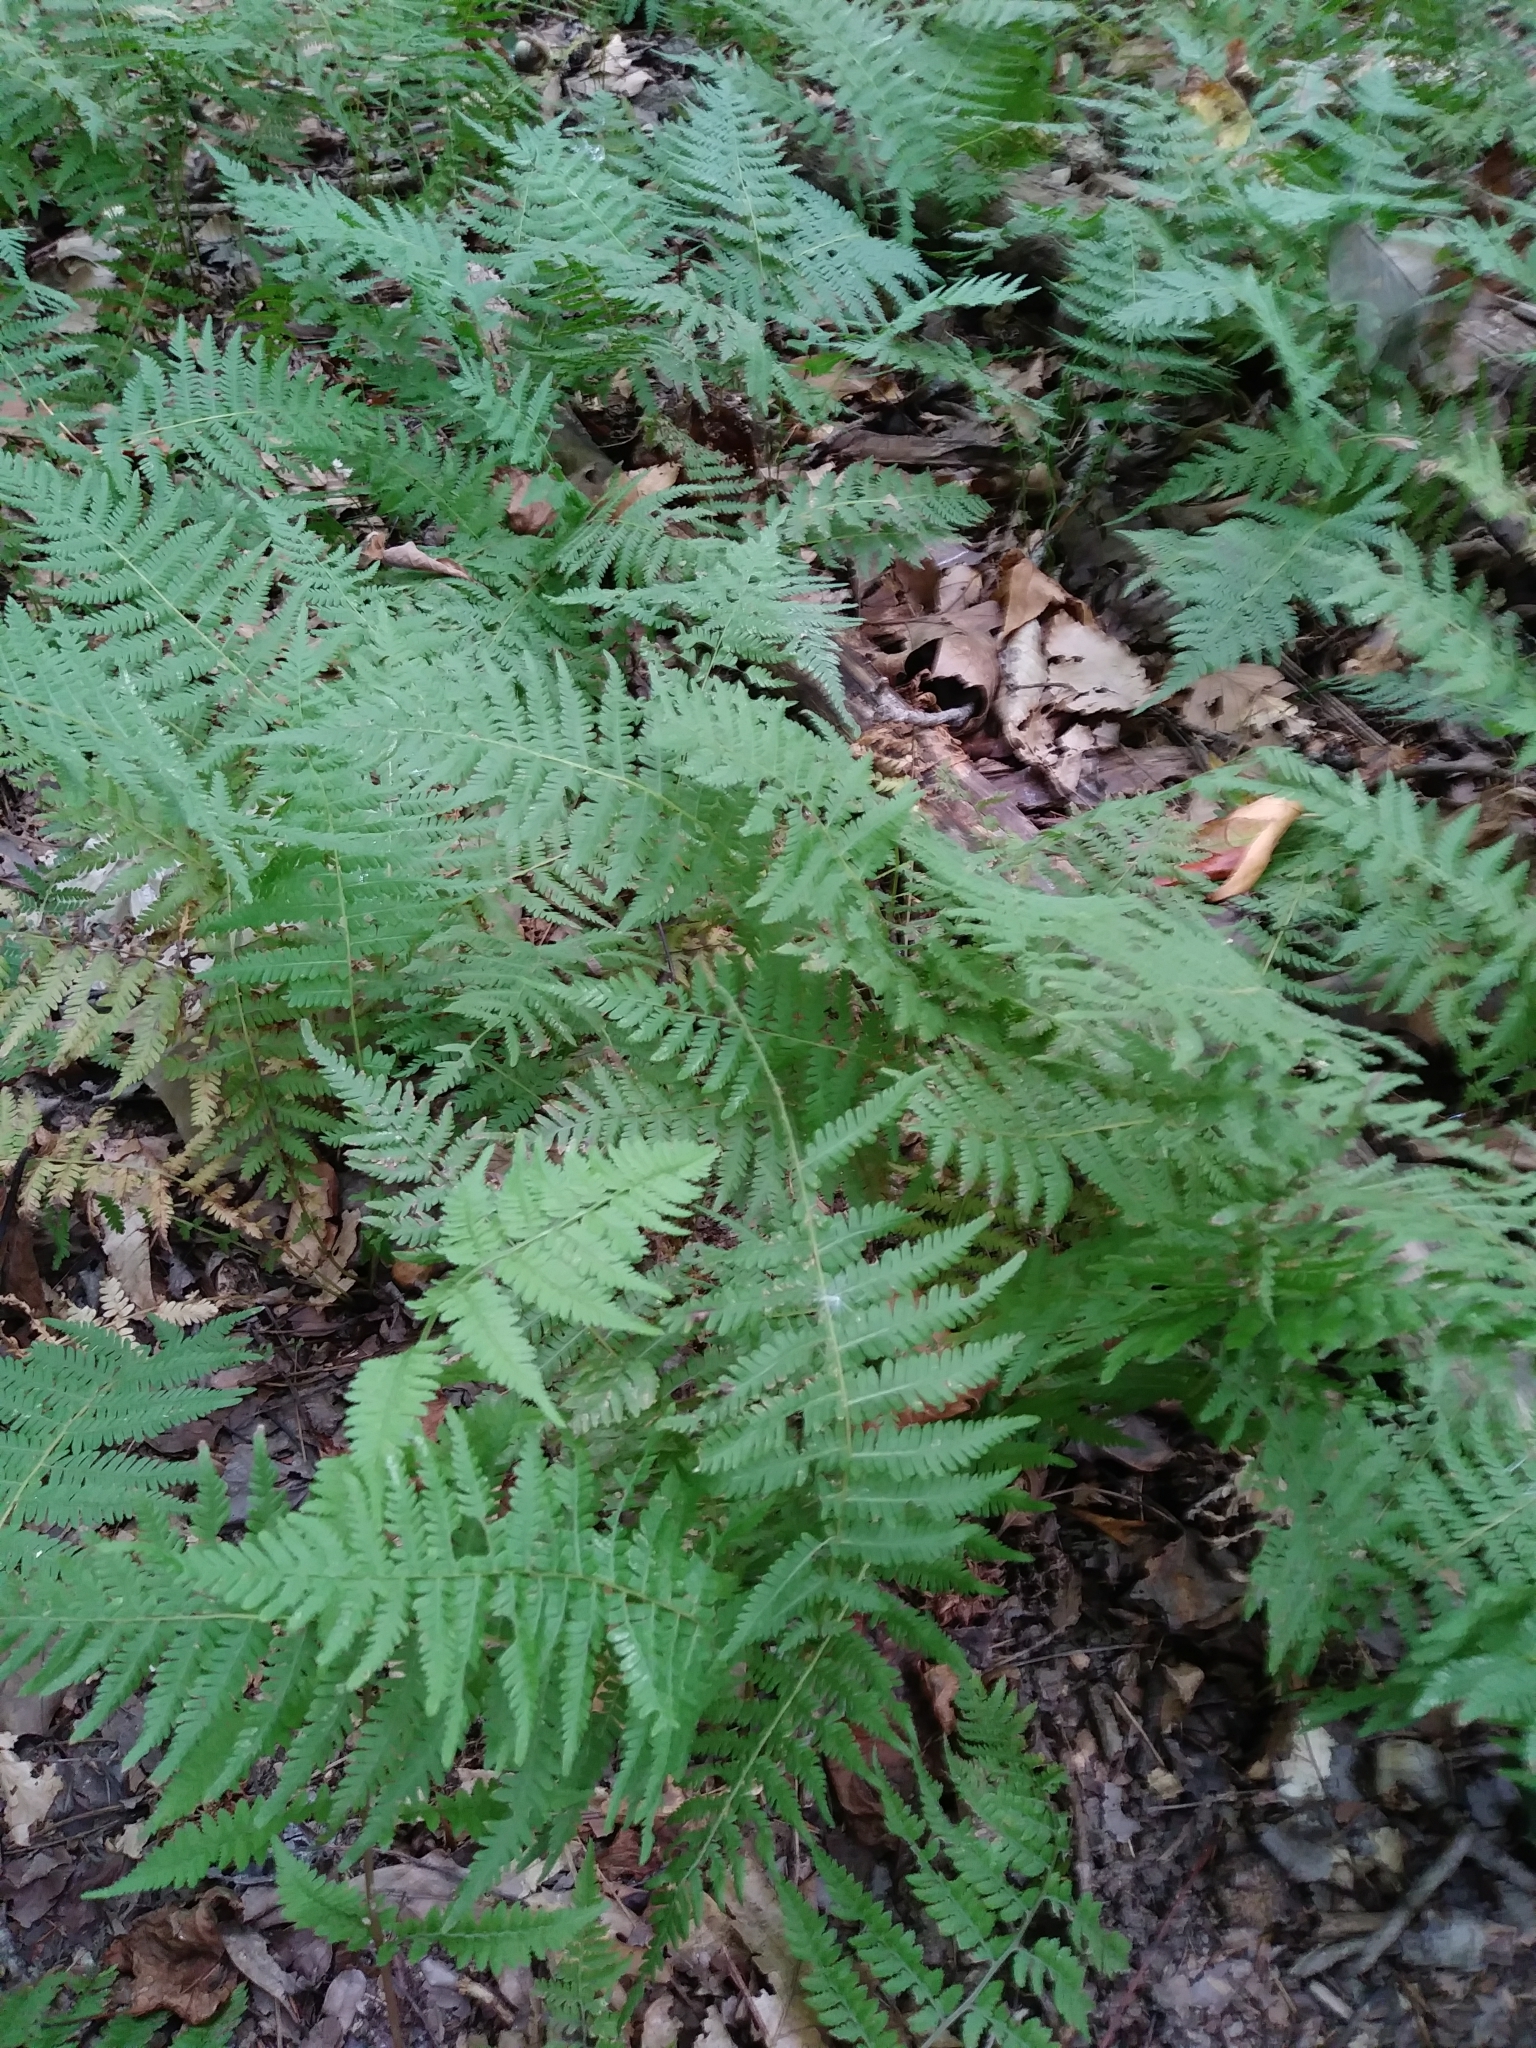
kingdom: Plantae
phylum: Tracheophyta
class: Polypodiopsida
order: Polypodiales
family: Thelypteridaceae
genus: Amauropelta
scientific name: Amauropelta noveboracensis
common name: New york fern
